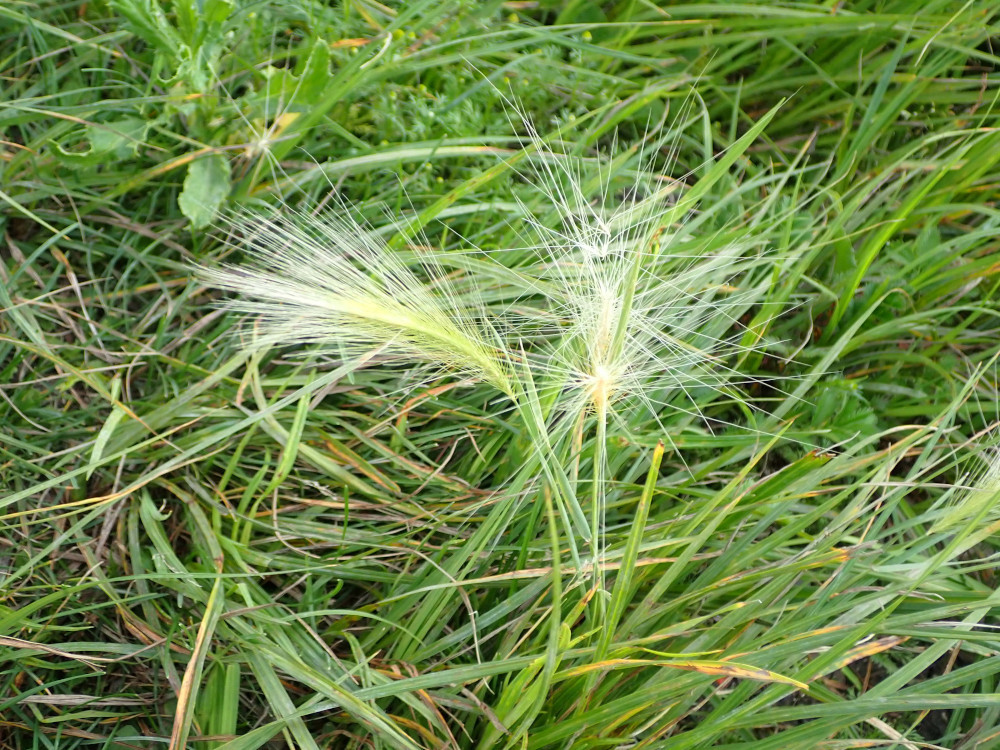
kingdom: Plantae
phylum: Tracheophyta
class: Liliopsida
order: Poales
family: Poaceae
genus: Hordeum
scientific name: Hordeum jubatum
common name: Foxtail barley
